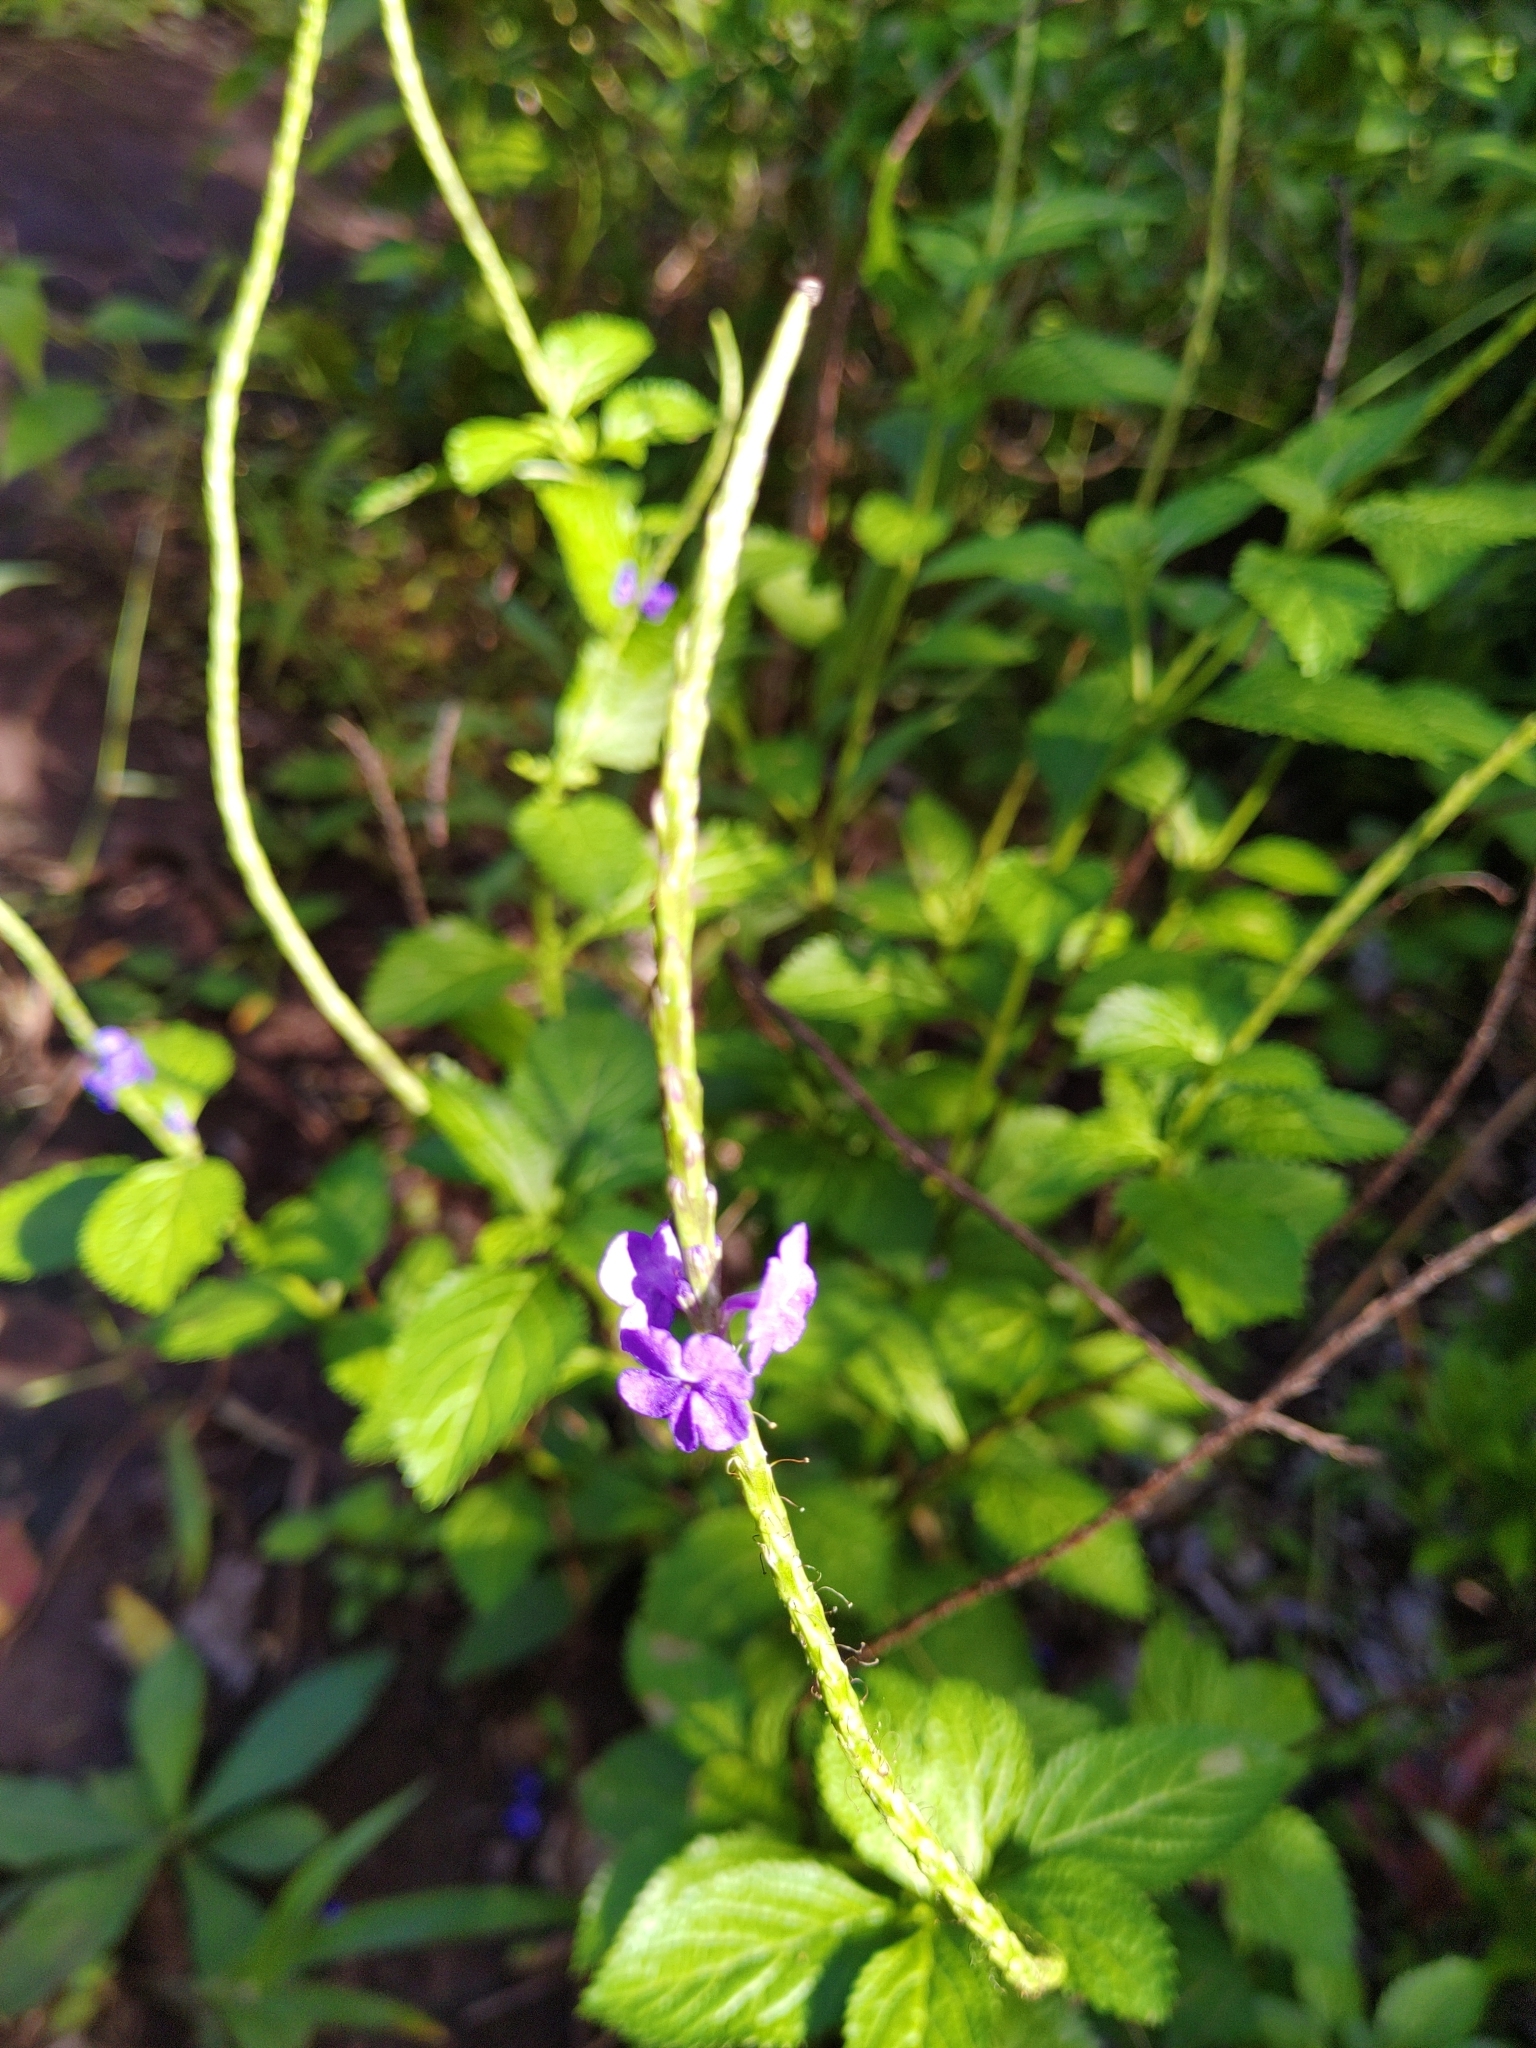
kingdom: Plantae
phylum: Tracheophyta
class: Magnoliopsida
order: Lamiales
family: Verbenaceae
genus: Stachytarpheta
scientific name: Stachytarpheta jamaicensis
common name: Light-blue snakeweed
